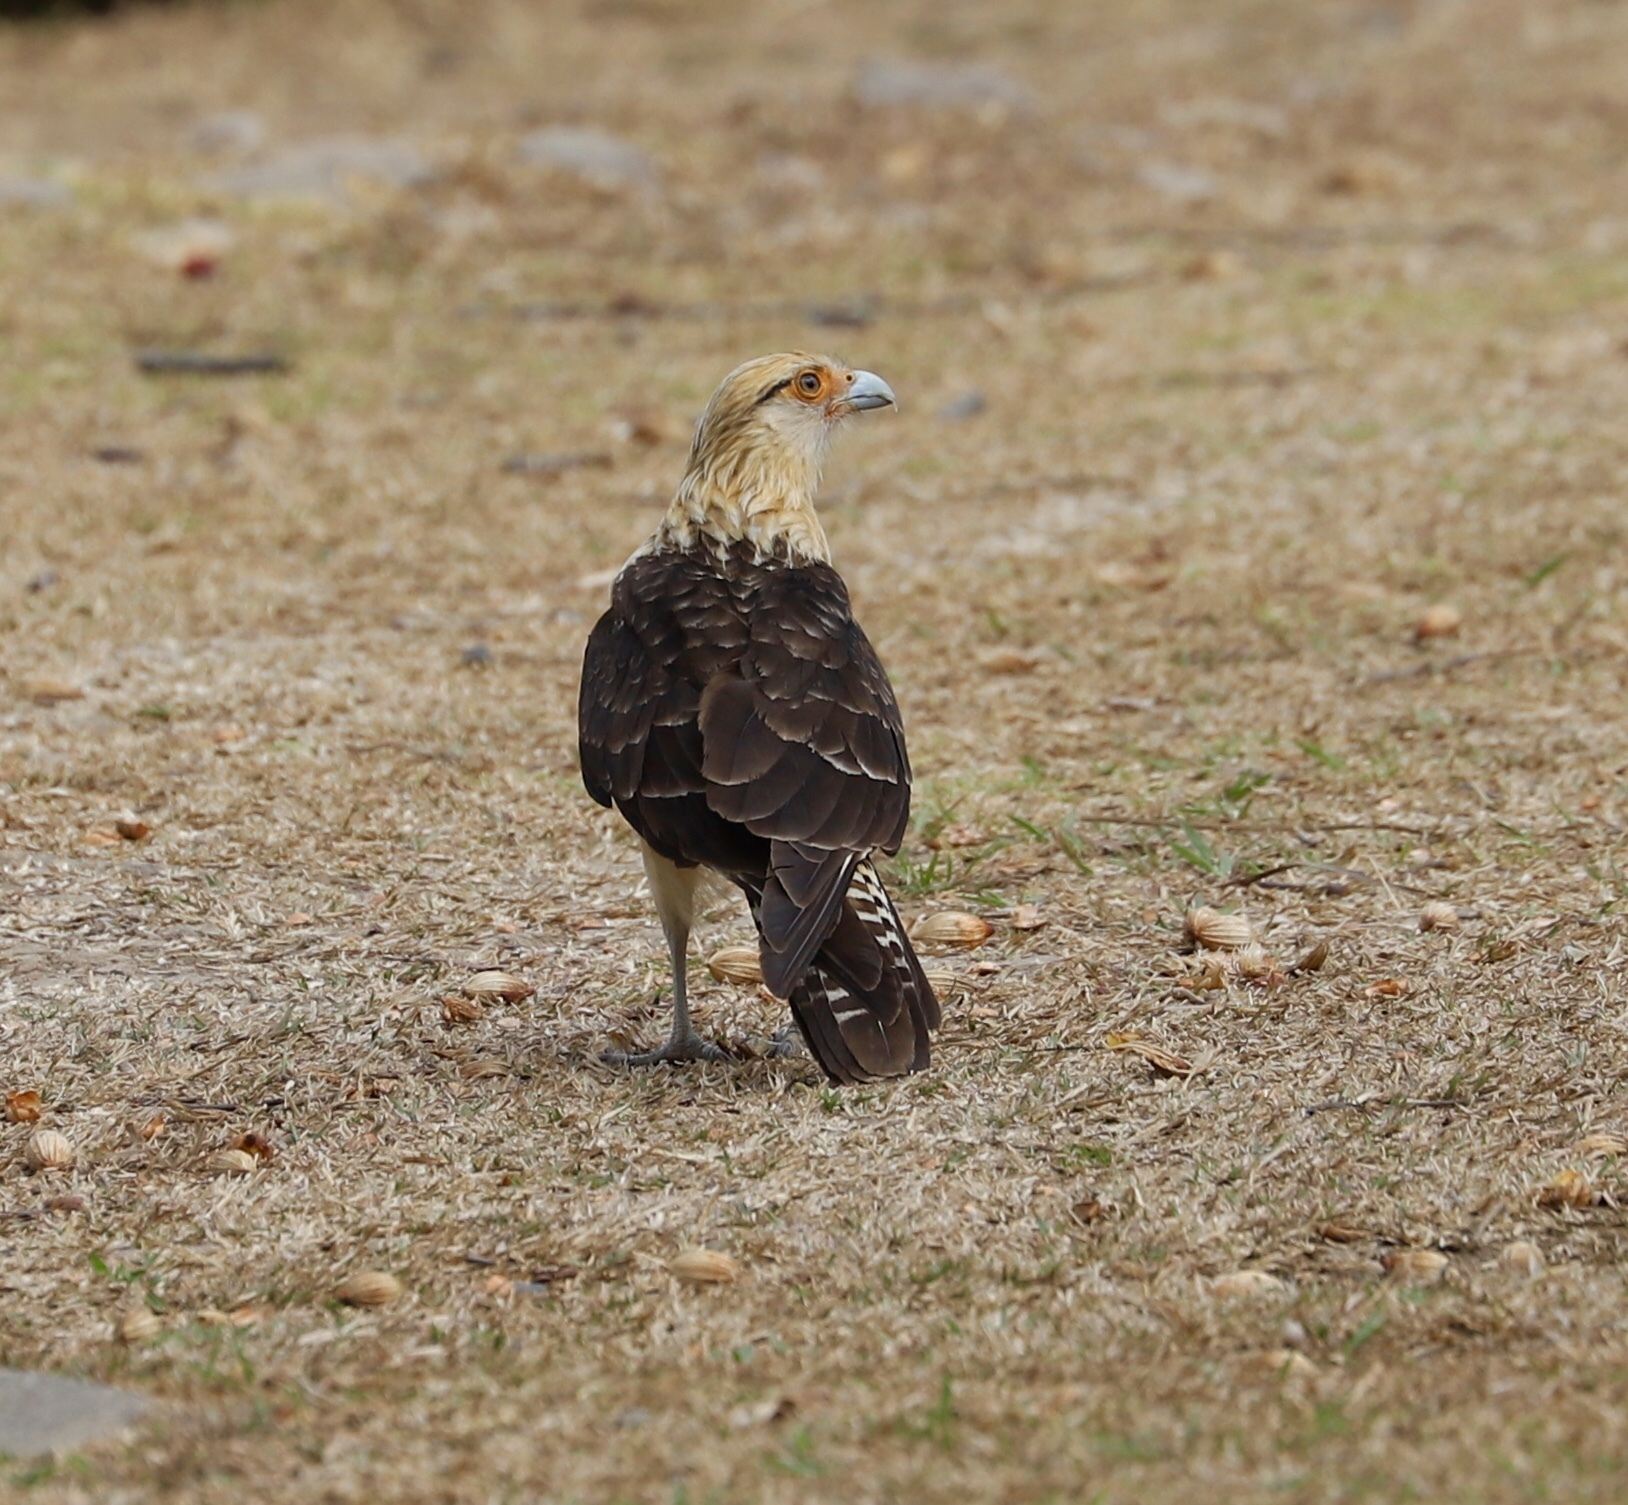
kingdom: Animalia
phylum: Chordata
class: Aves
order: Falconiformes
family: Falconidae
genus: Daptrius
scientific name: Daptrius
